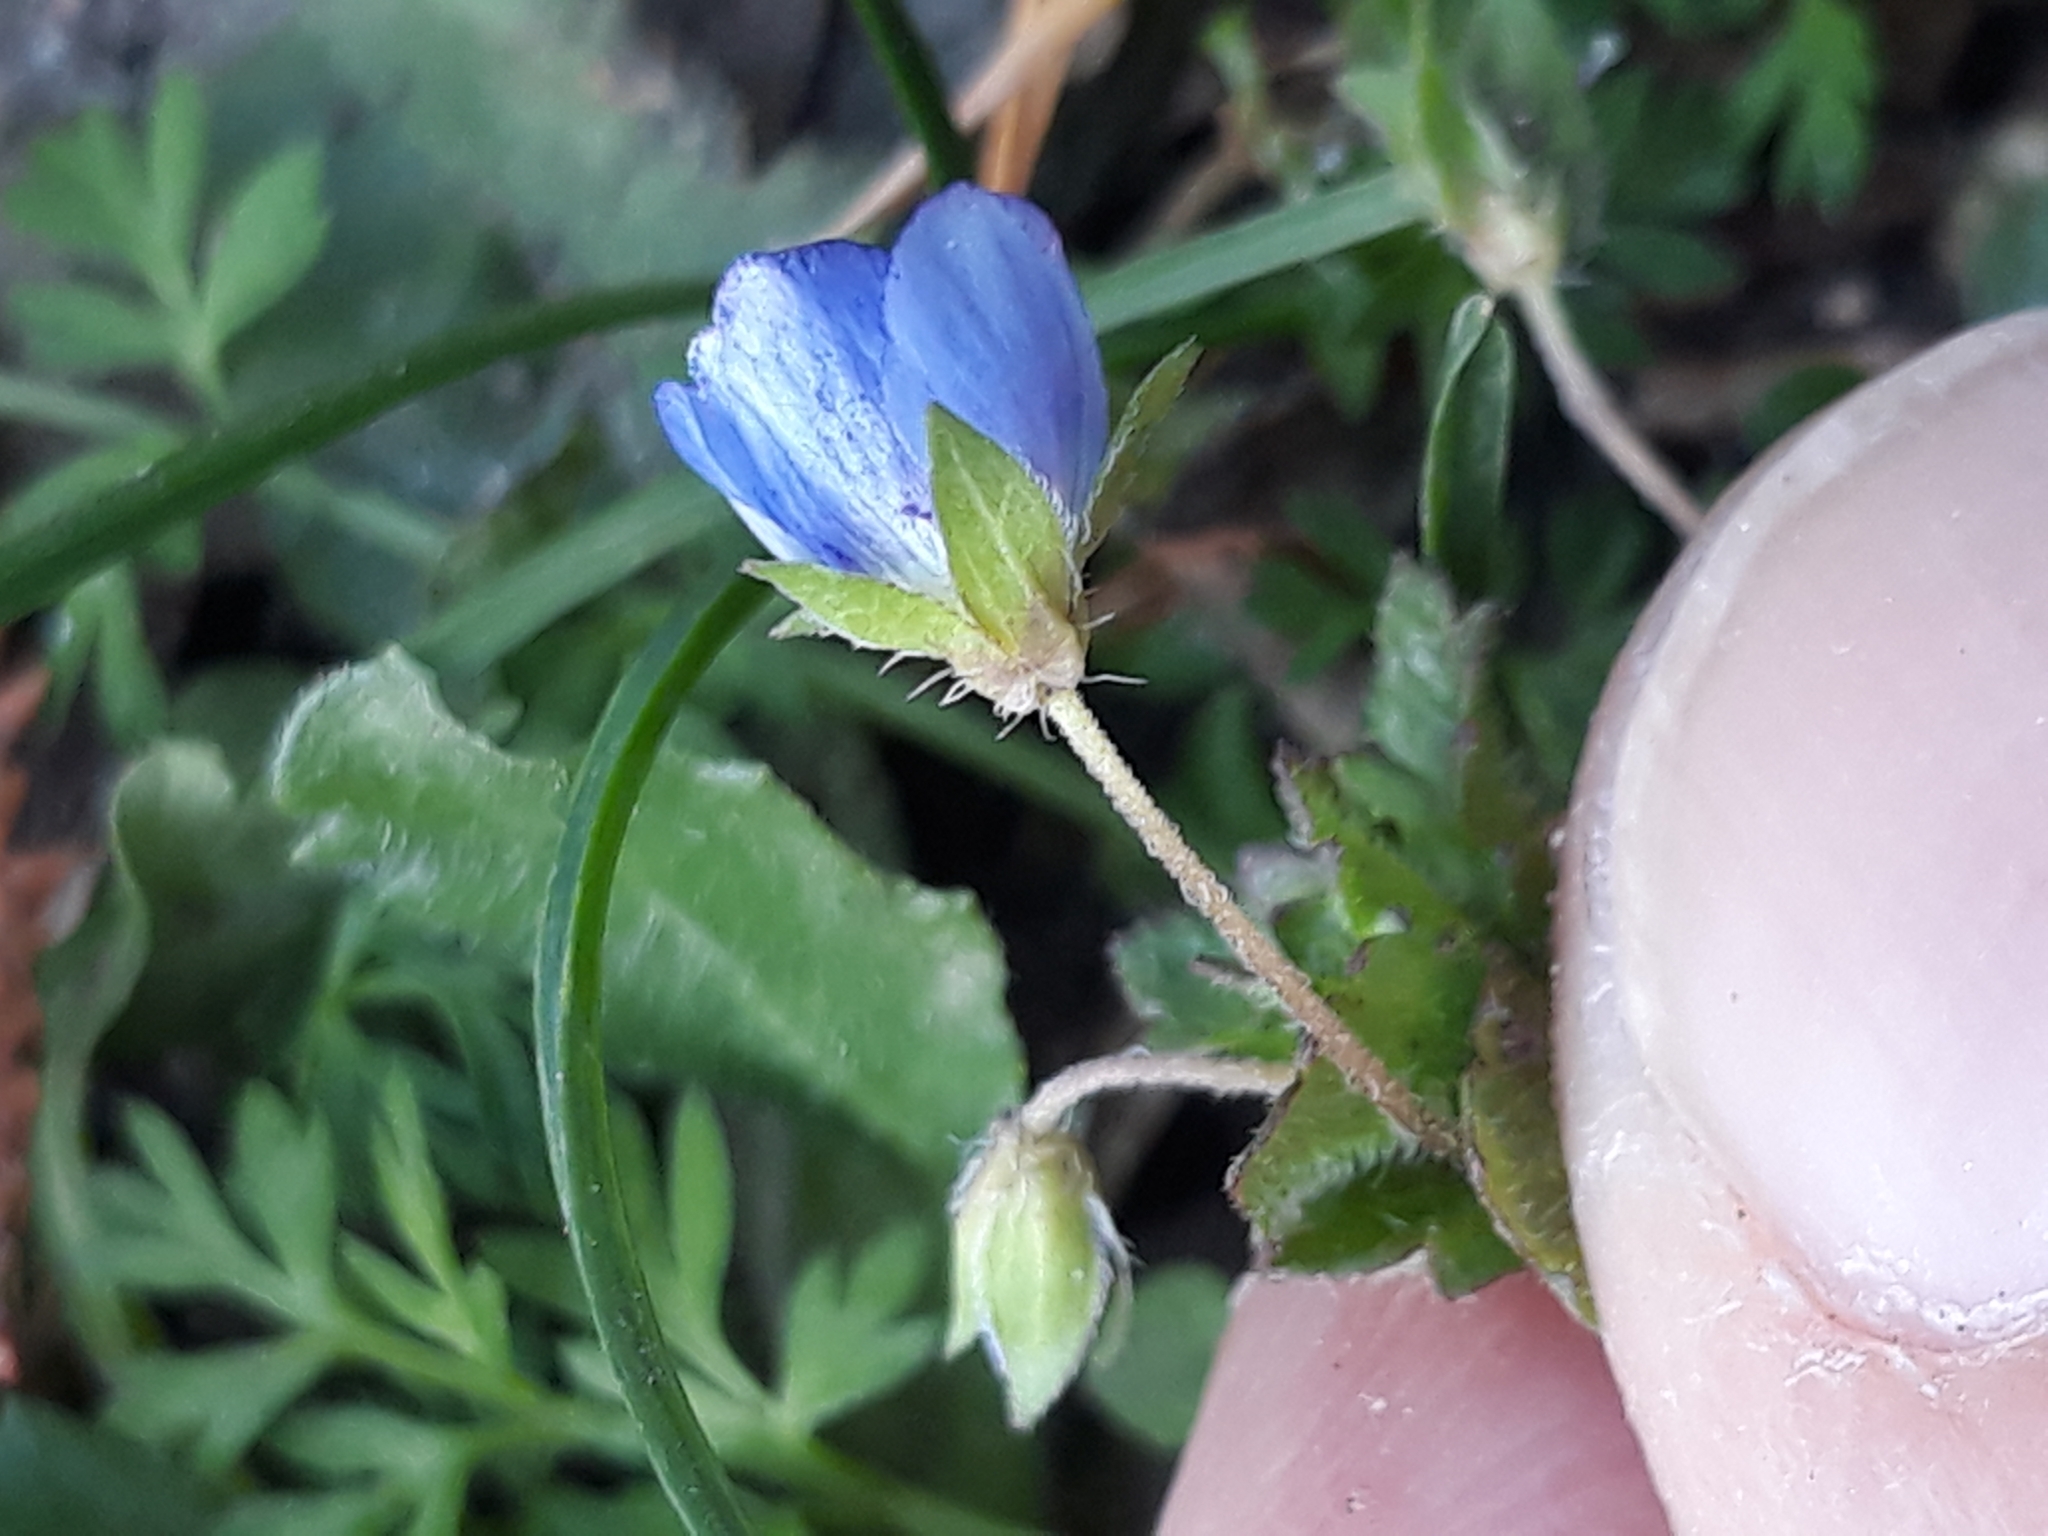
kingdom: Plantae
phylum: Tracheophyta
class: Magnoliopsida
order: Lamiales
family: Plantaginaceae
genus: Veronica
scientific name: Veronica persica
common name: Common field-speedwell
